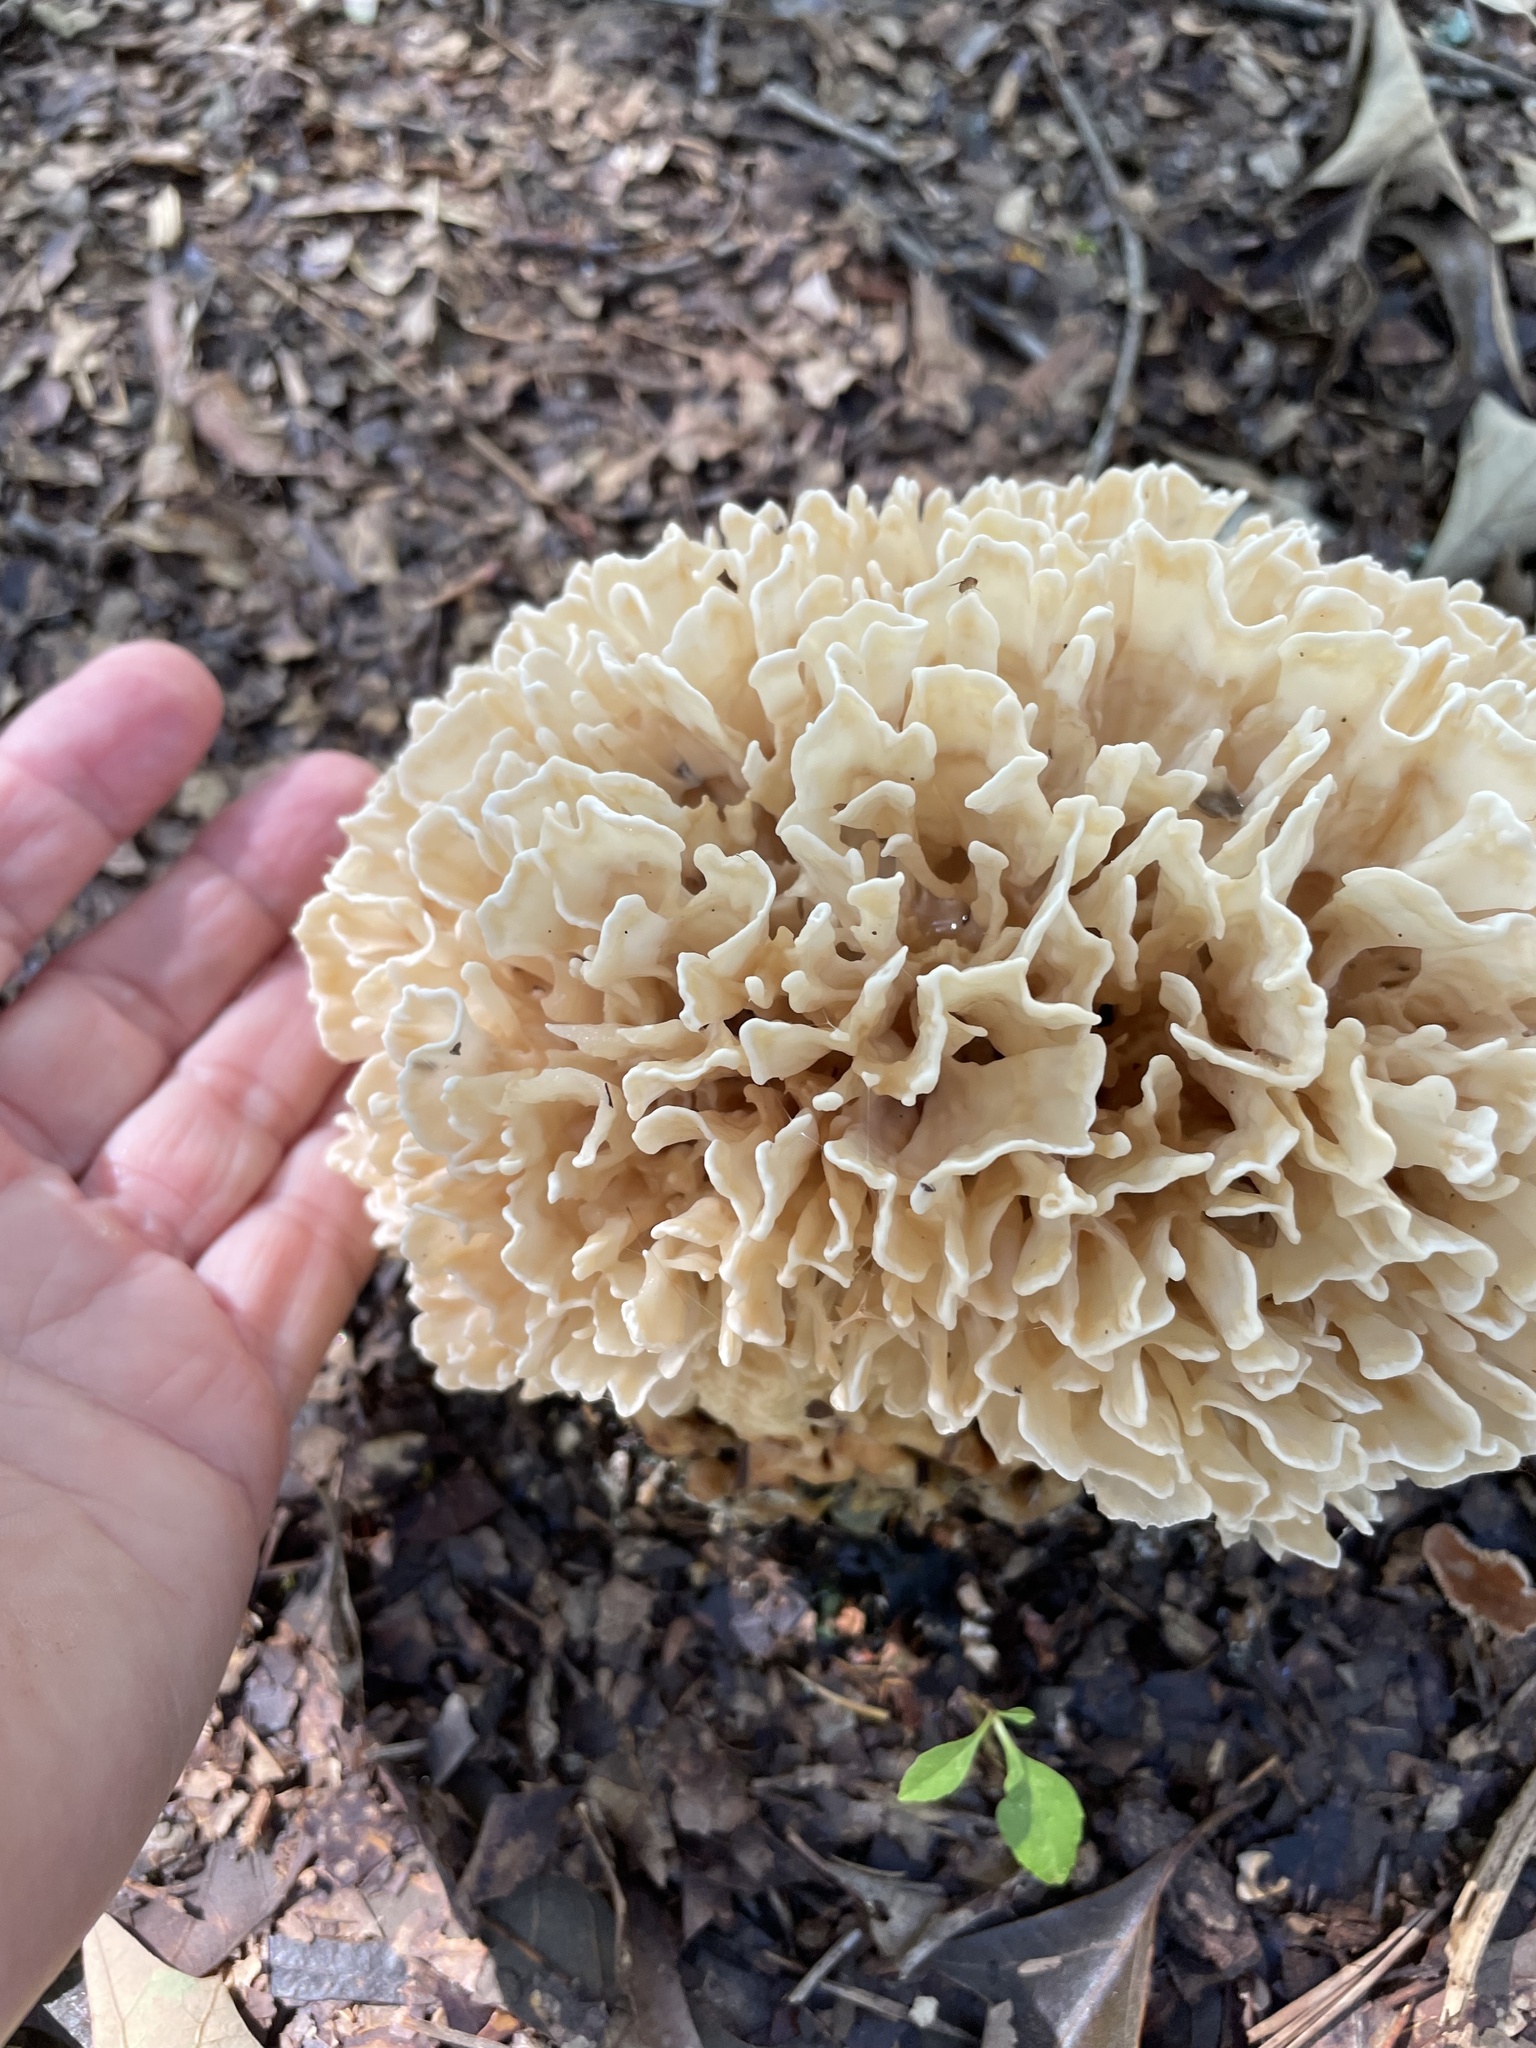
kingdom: Fungi
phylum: Basidiomycota
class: Agaricomycetes
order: Polyporales
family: Sparassidaceae
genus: Sparassis
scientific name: Sparassis spathulata
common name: Eastern cauliflower mushroom
